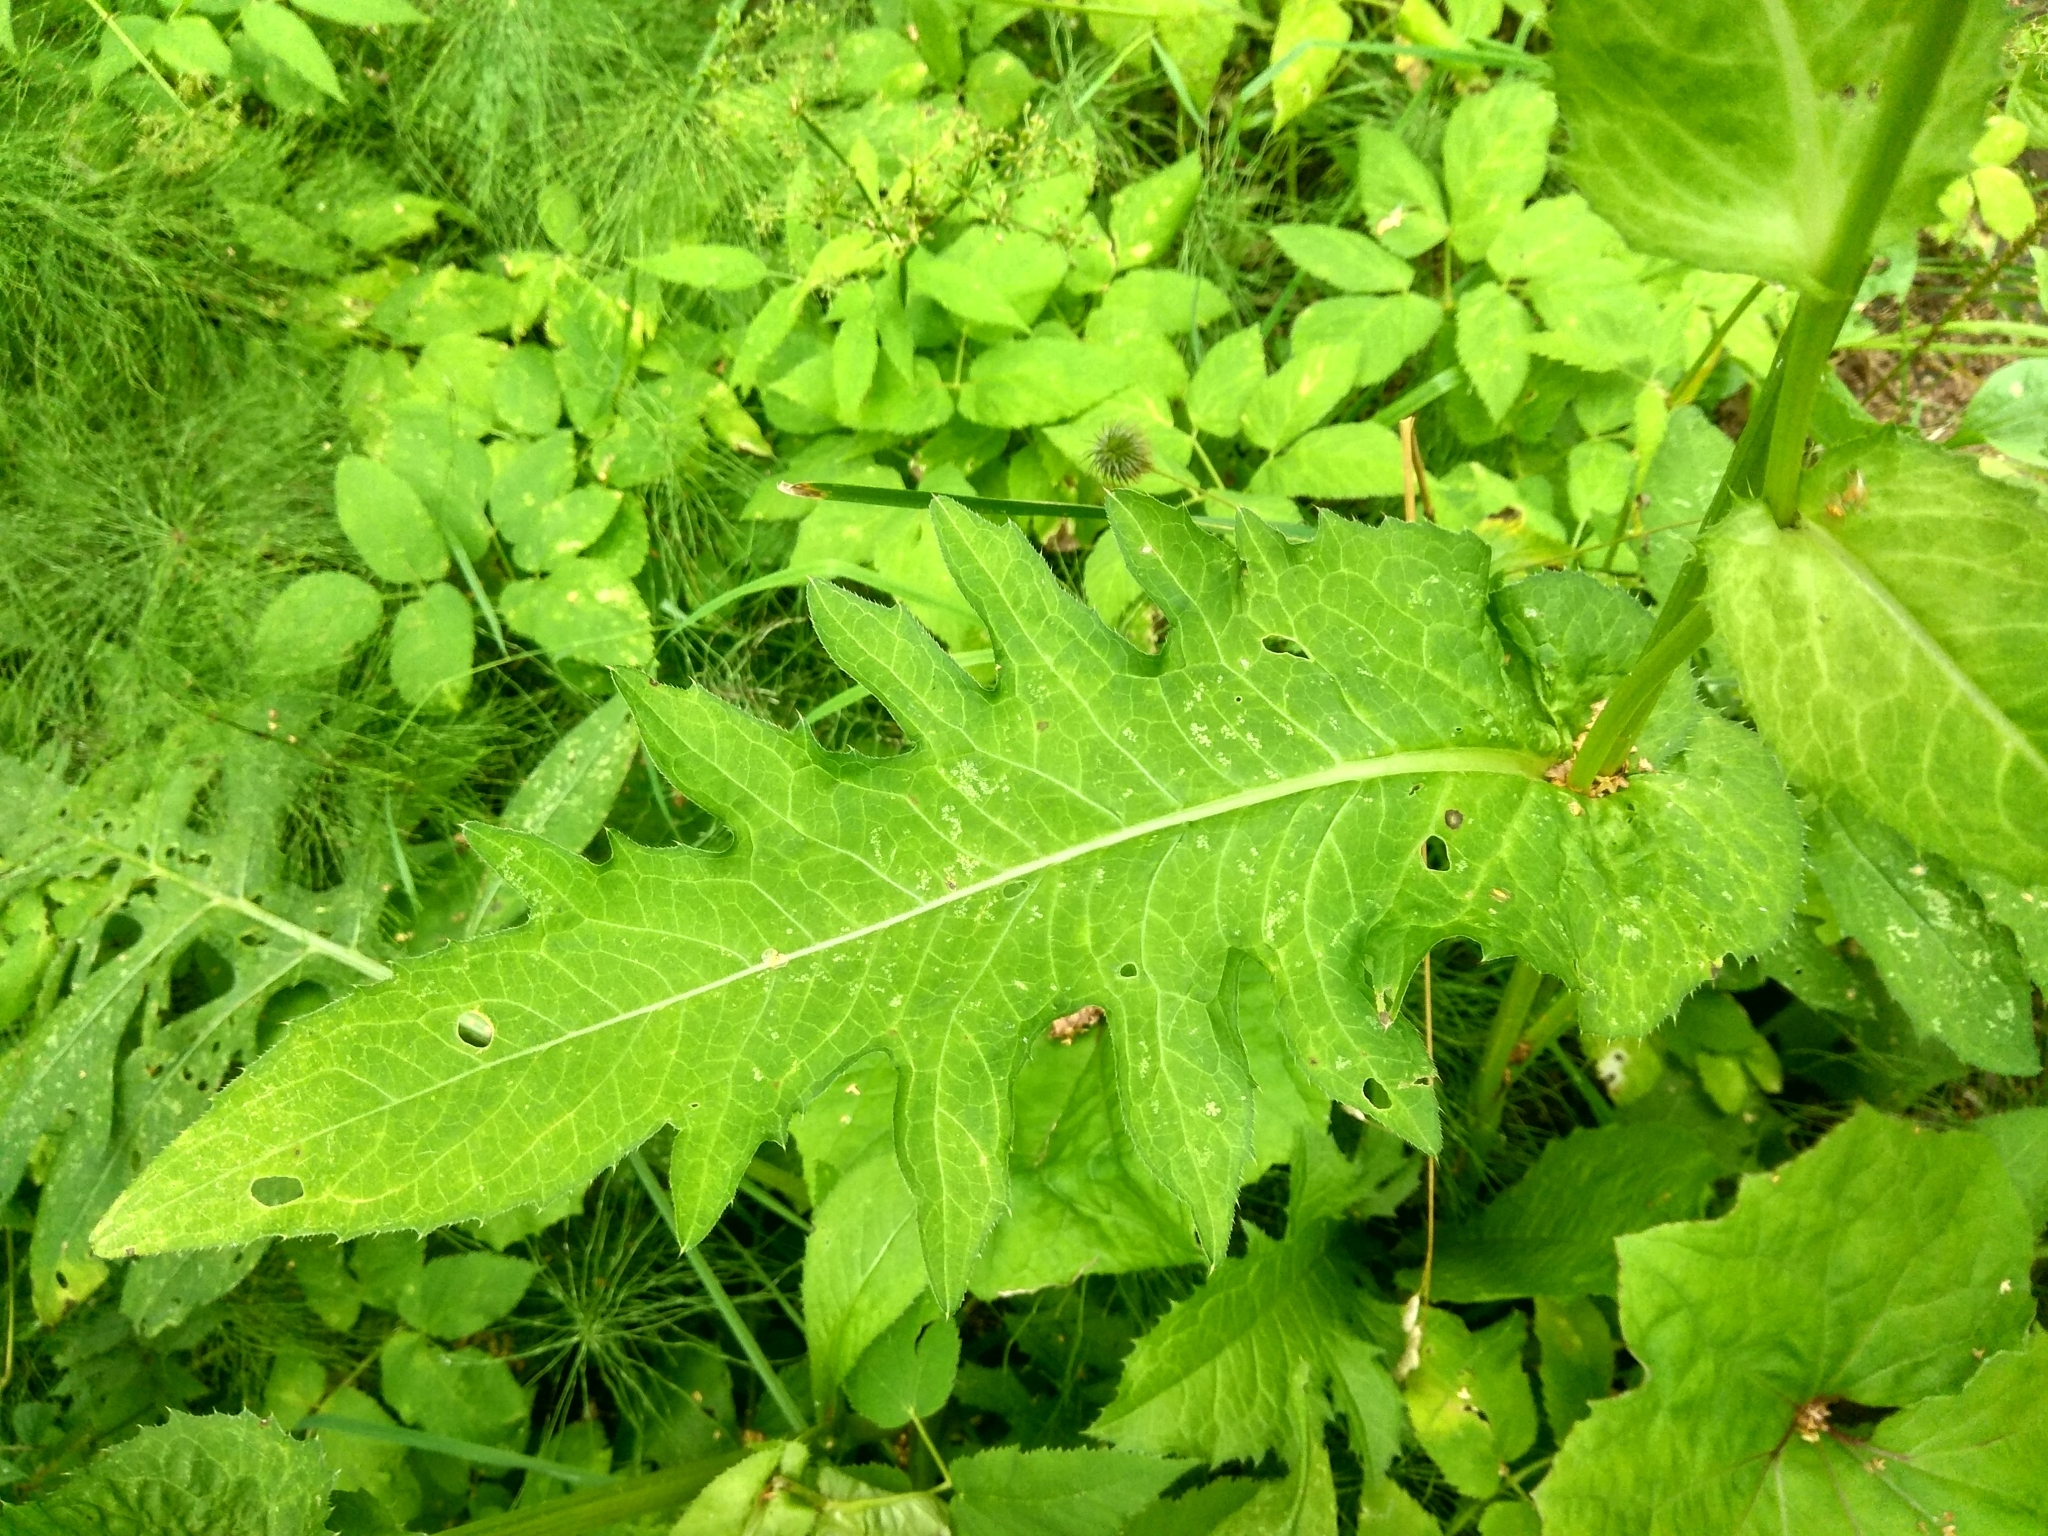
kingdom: Plantae
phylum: Tracheophyta
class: Magnoliopsida
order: Asterales
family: Asteraceae
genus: Cirsium
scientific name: Cirsium oleraceum
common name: Cabbage thistle
